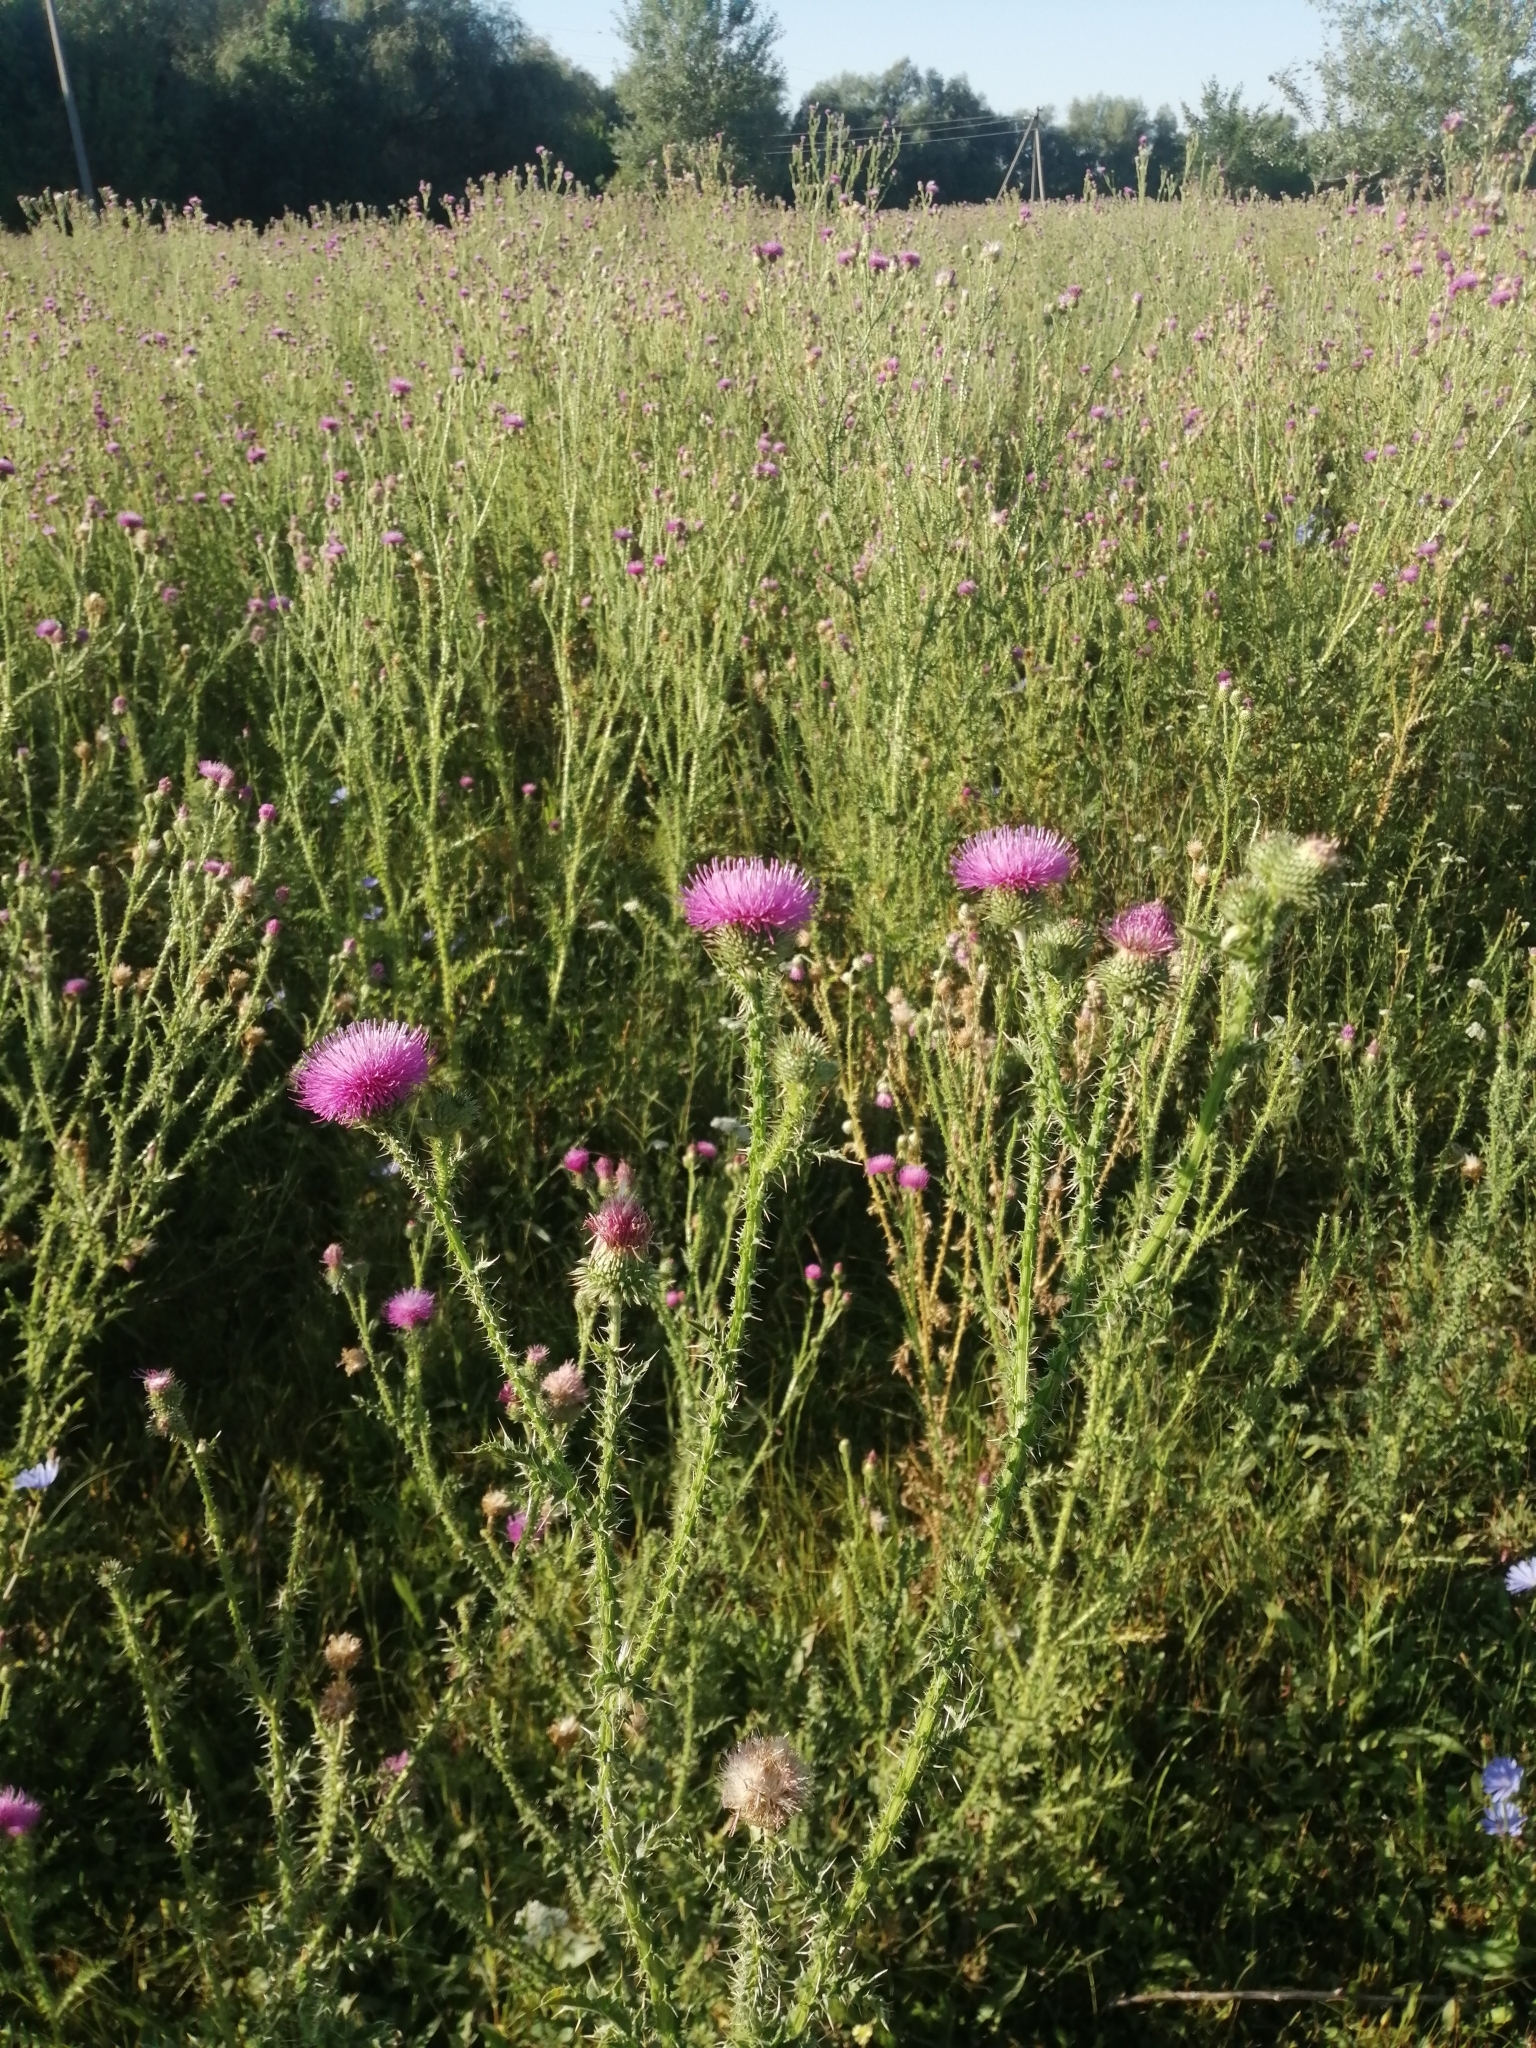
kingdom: Plantae
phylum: Tracheophyta
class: Magnoliopsida
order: Asterales
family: Asteraceae
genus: Carduus
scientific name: Carduus acanthoides
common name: Plumeless thistle
